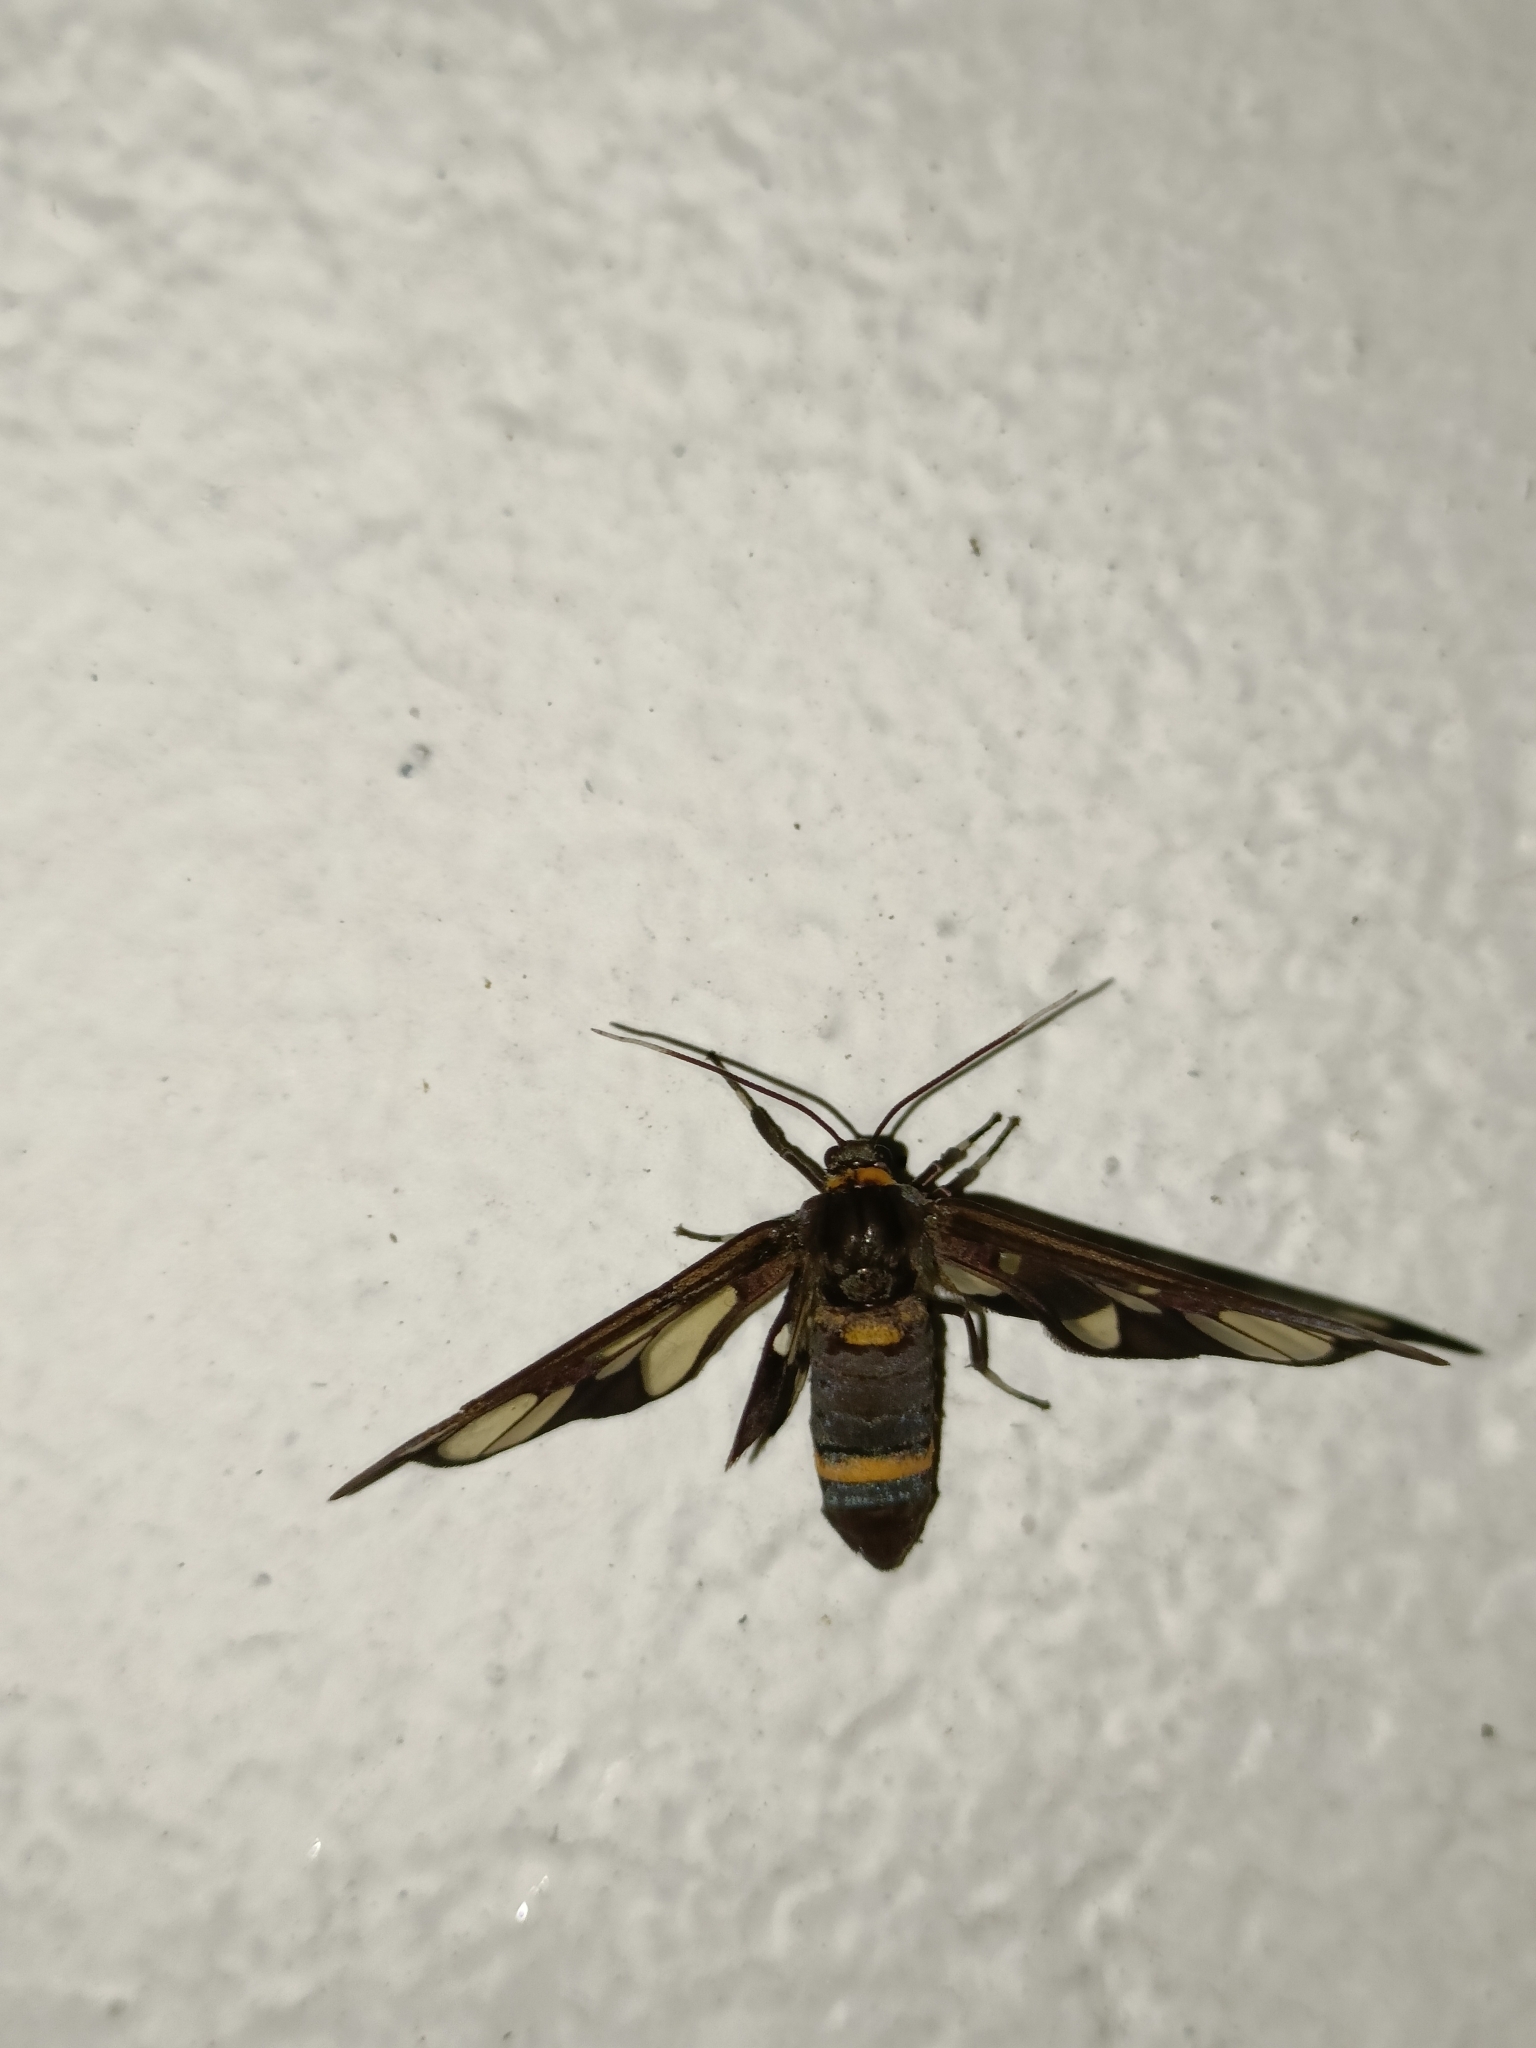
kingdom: Animalia
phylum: Arthropoda
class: Insecta
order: Lepidoptera
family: Erebidae
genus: Syntomoides
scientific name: Syntomoides imaon
